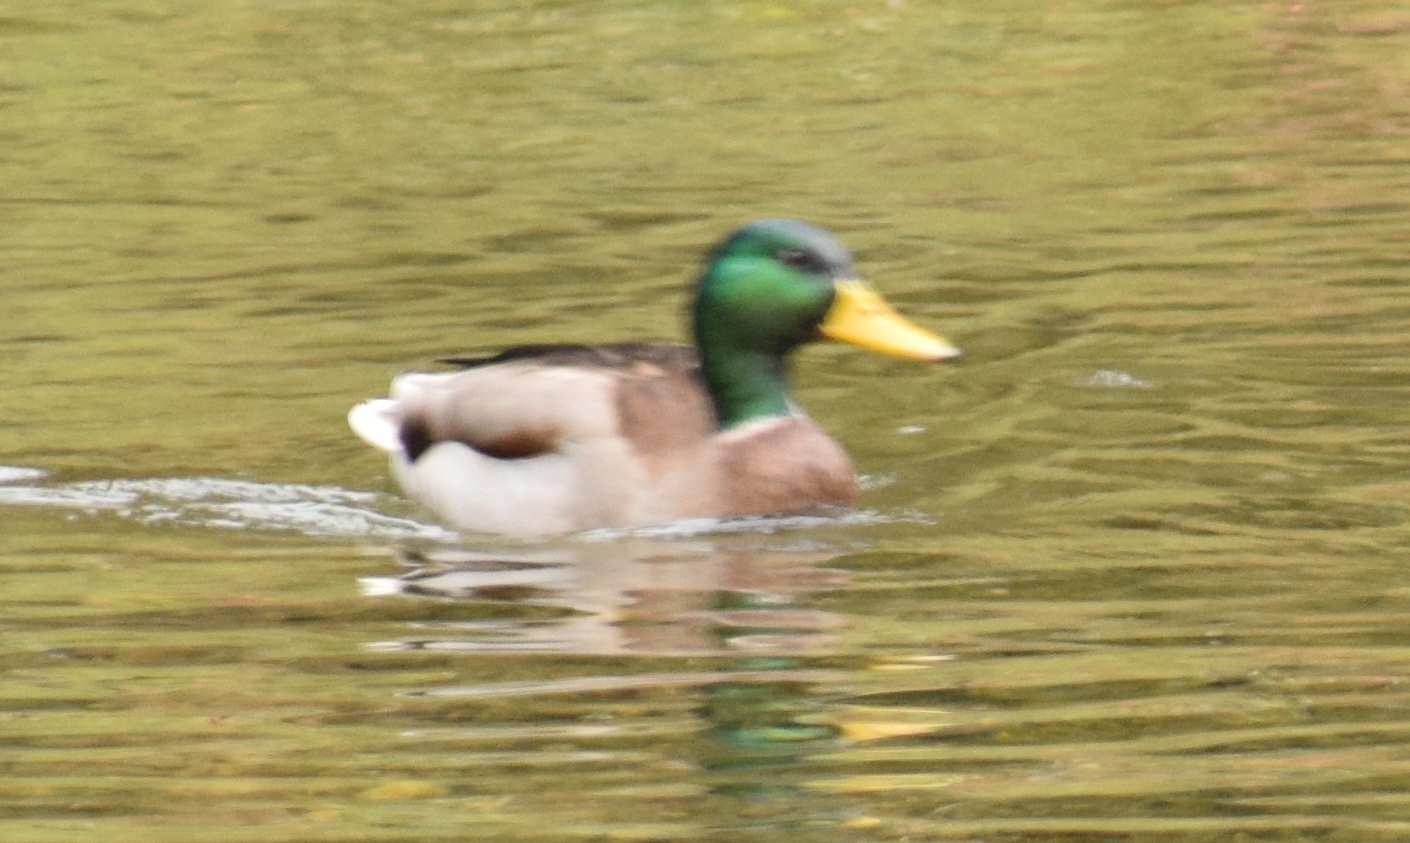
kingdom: Animalia
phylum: Chordata
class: Aves
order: Anseriformes
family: Anatidae
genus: Anas
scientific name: Anas platyrhynchos
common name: Mallard
